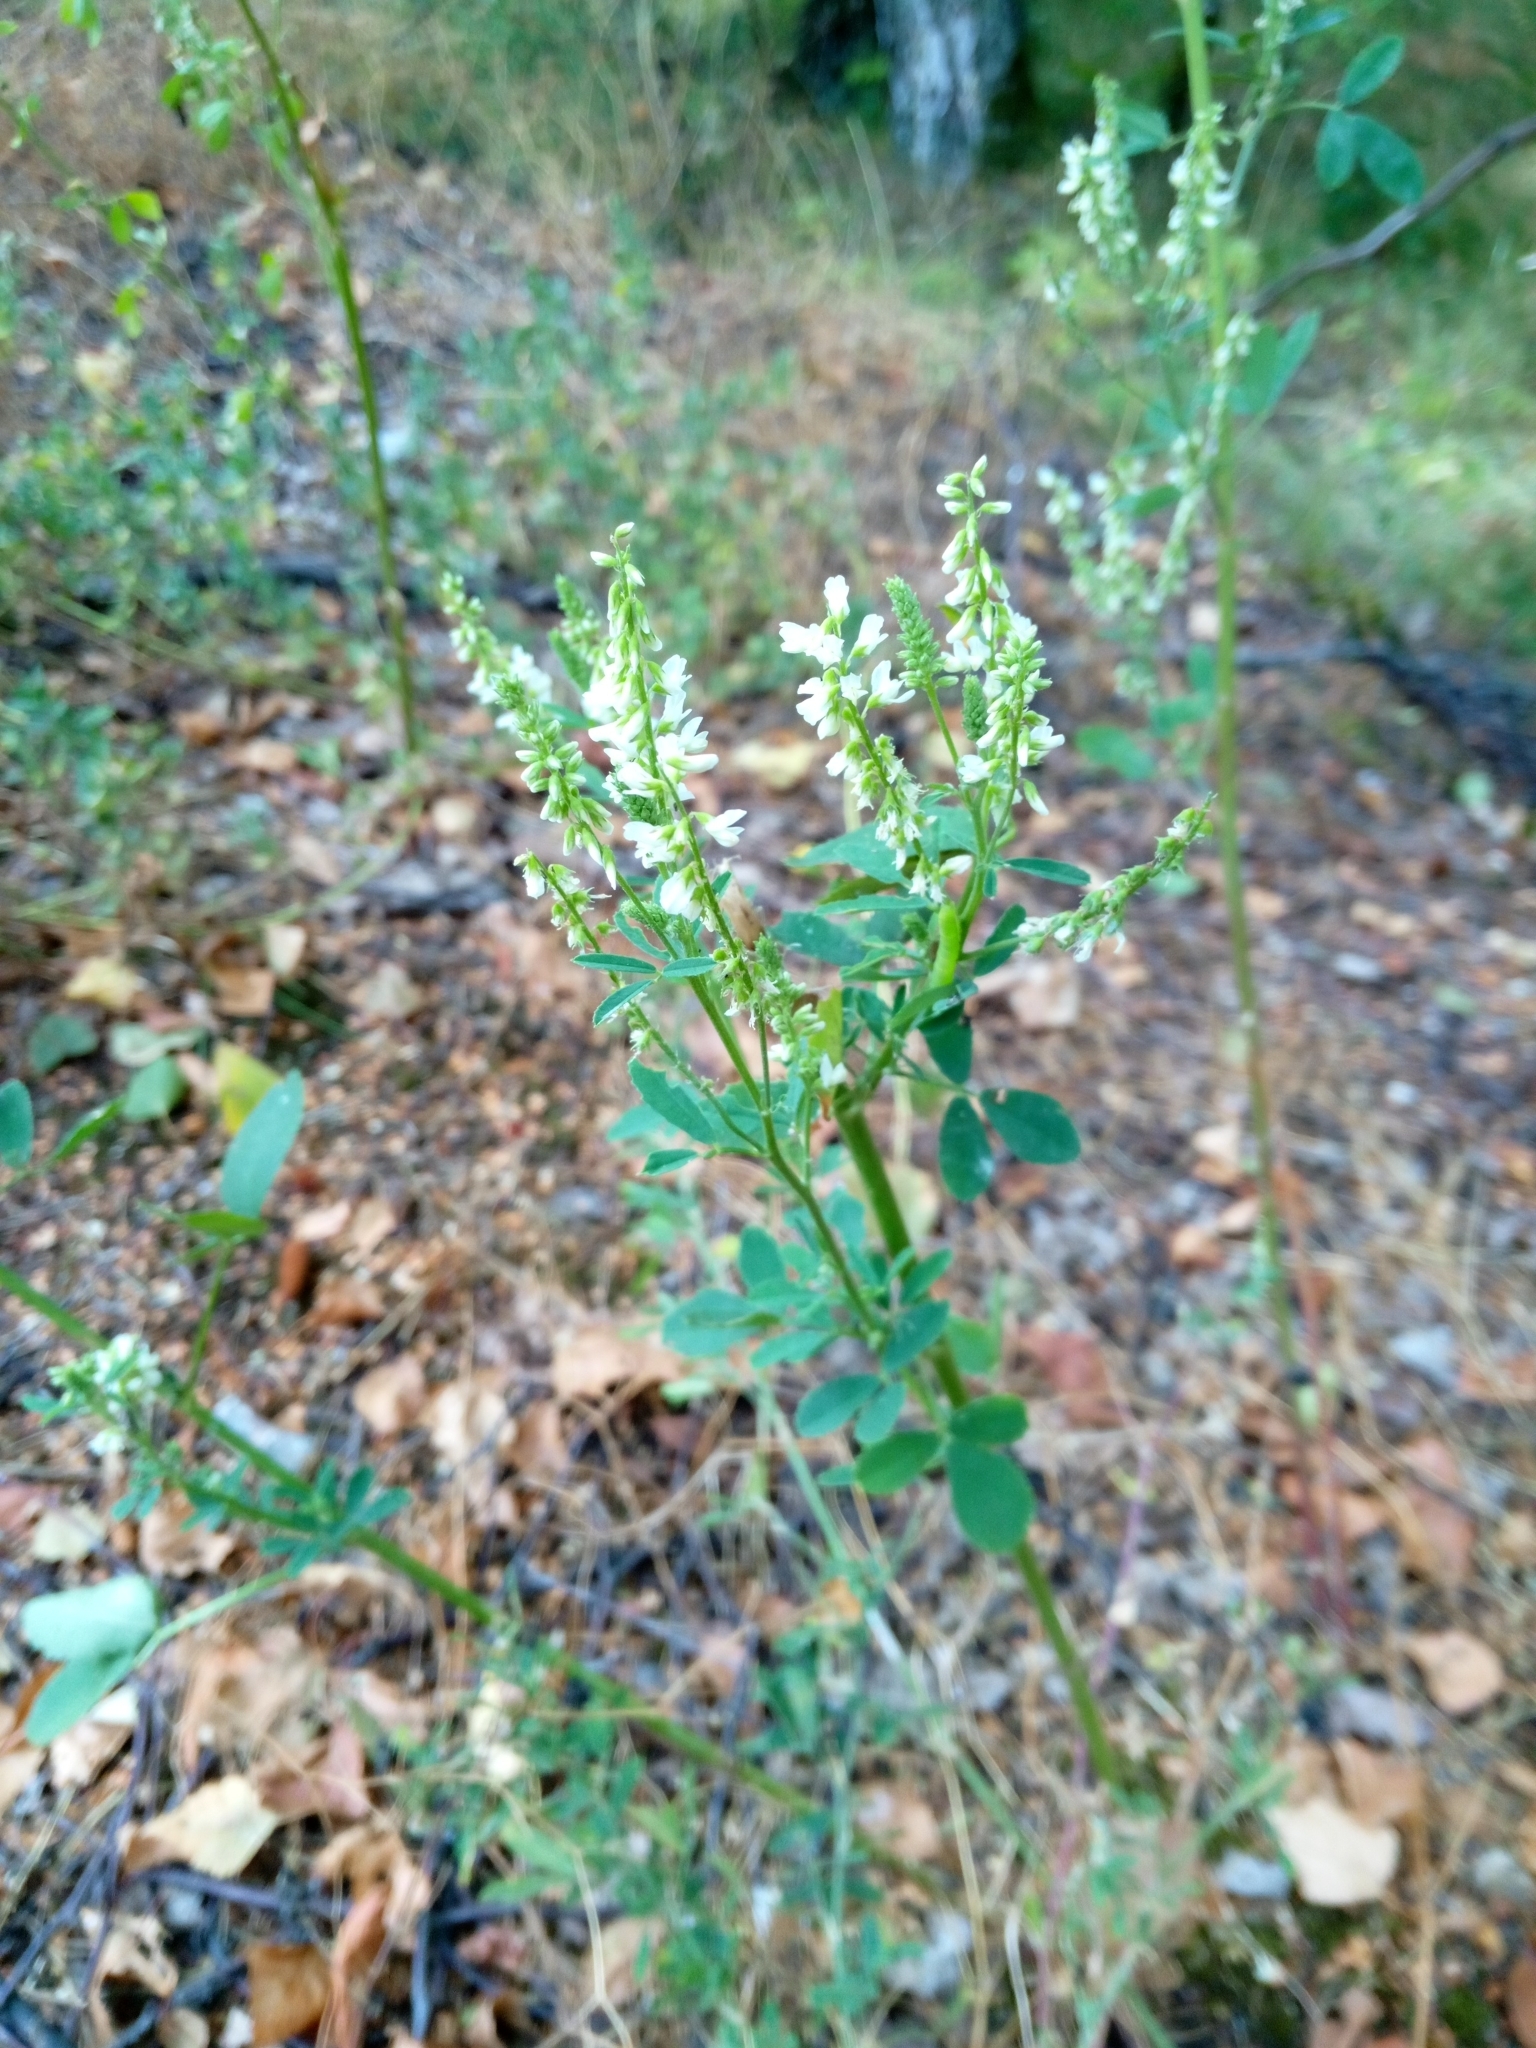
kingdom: Plantae
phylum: Tracheophyta
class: Magnoliopsida
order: Fabales
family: Fabaceae
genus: Melilotus
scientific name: Melilotus albus
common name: White melilot
